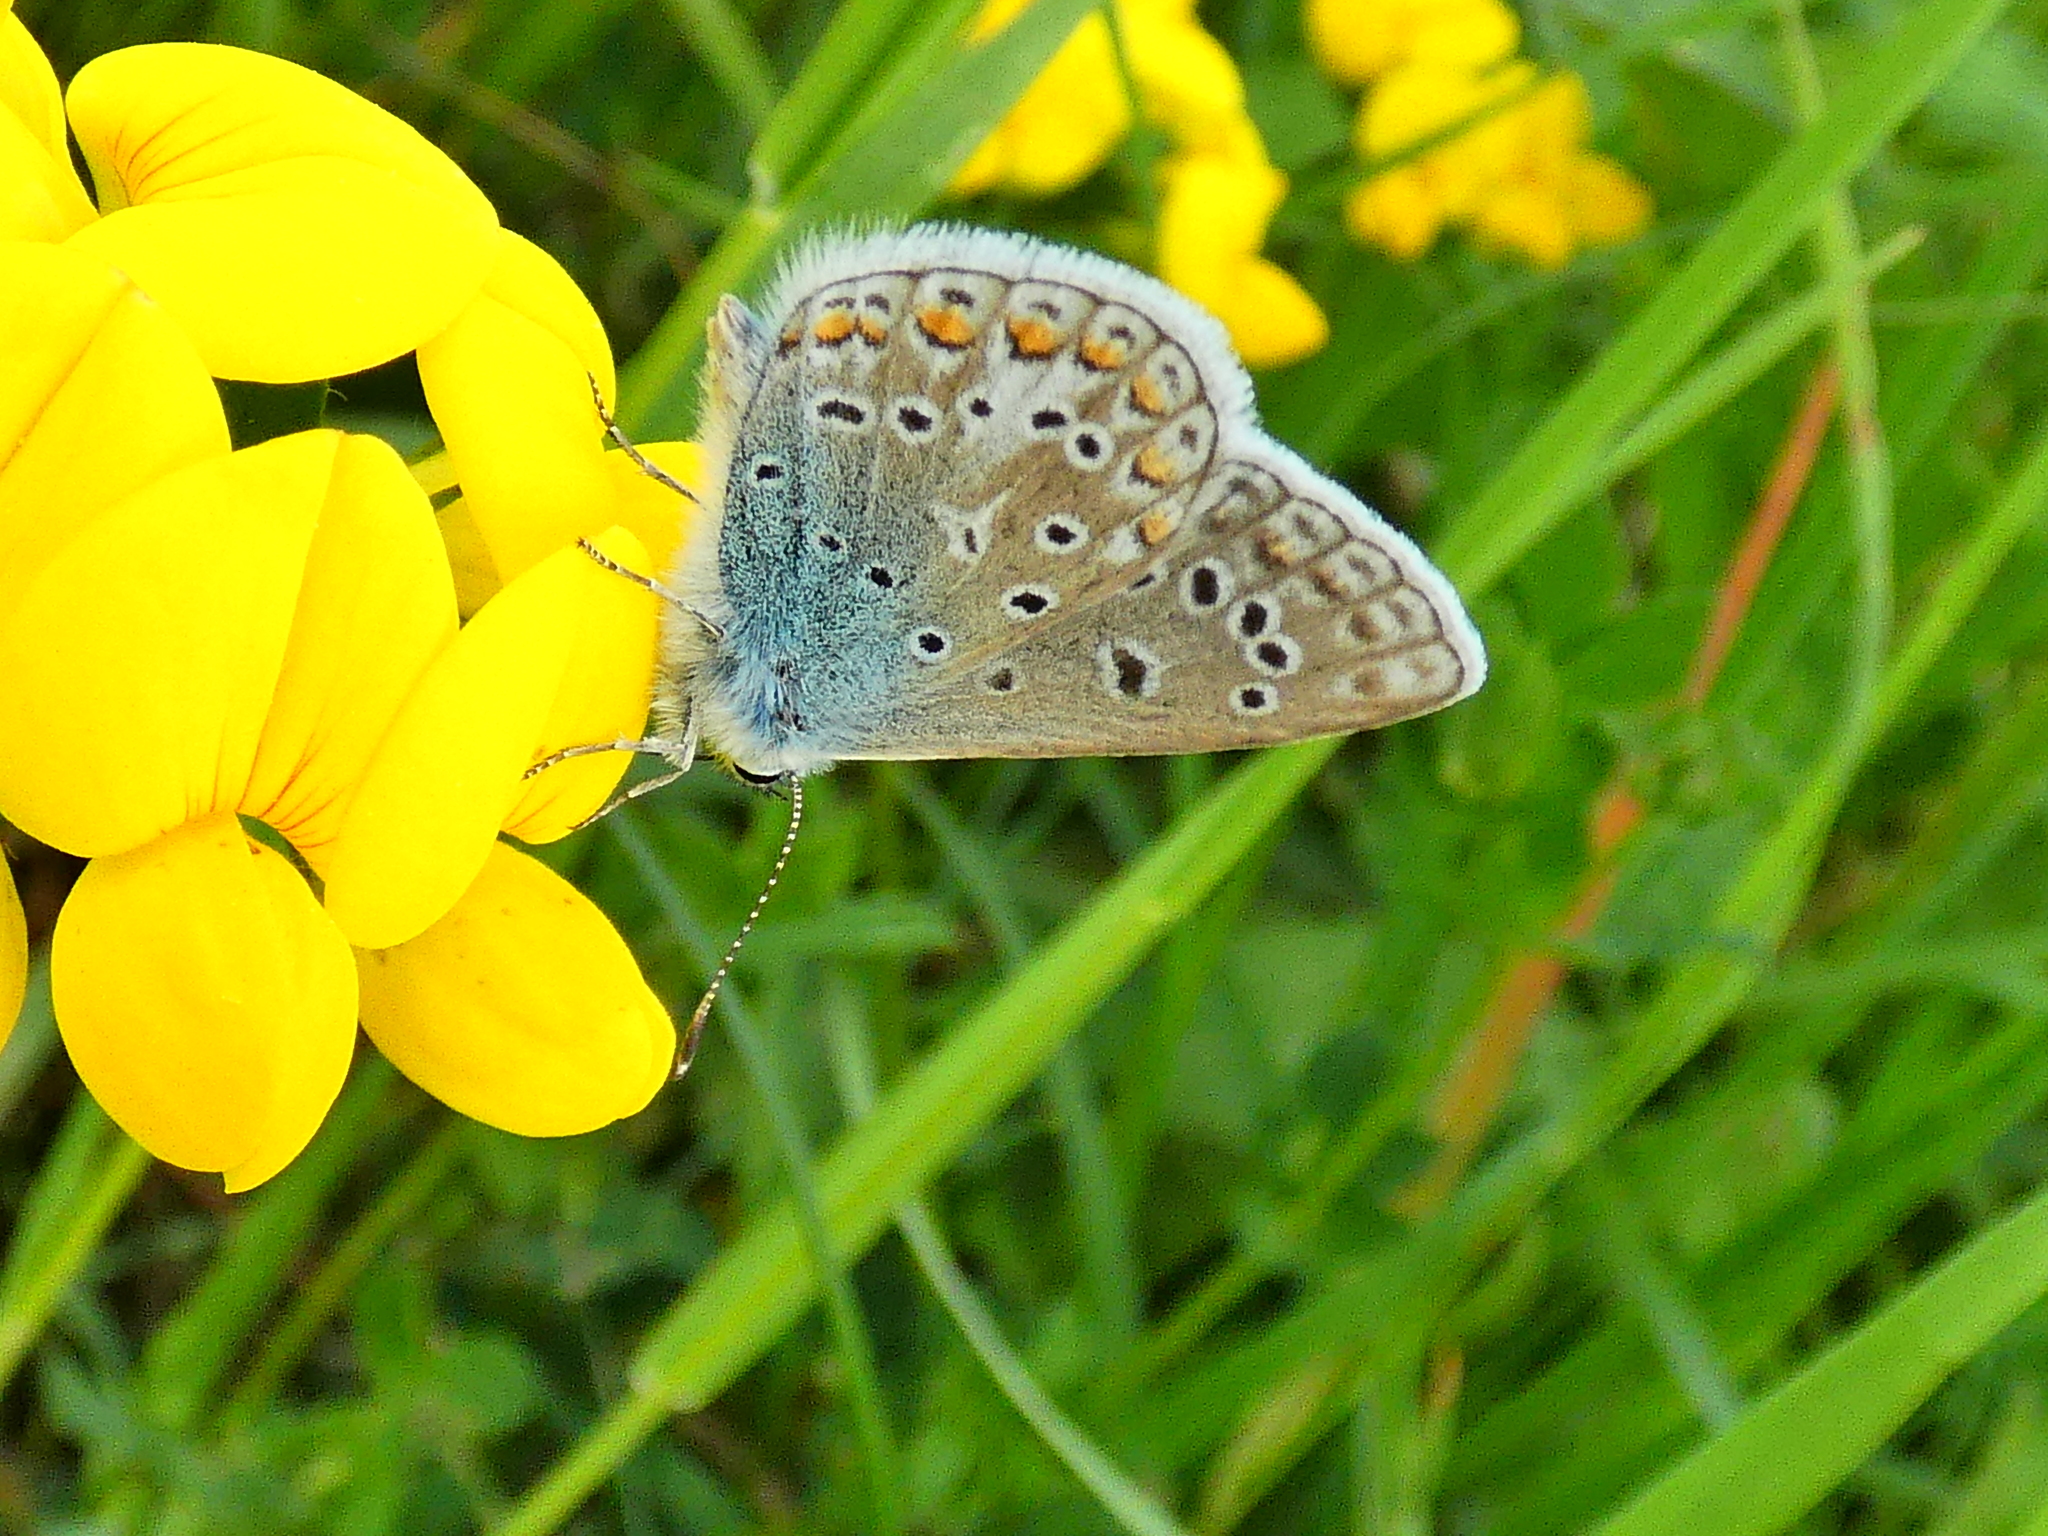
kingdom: Animalia
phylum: Arthropoda
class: Insecta
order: Lepidoptera
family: Lycaenidae
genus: Polyommatus
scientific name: Polyommatus icarus
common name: Common blue
